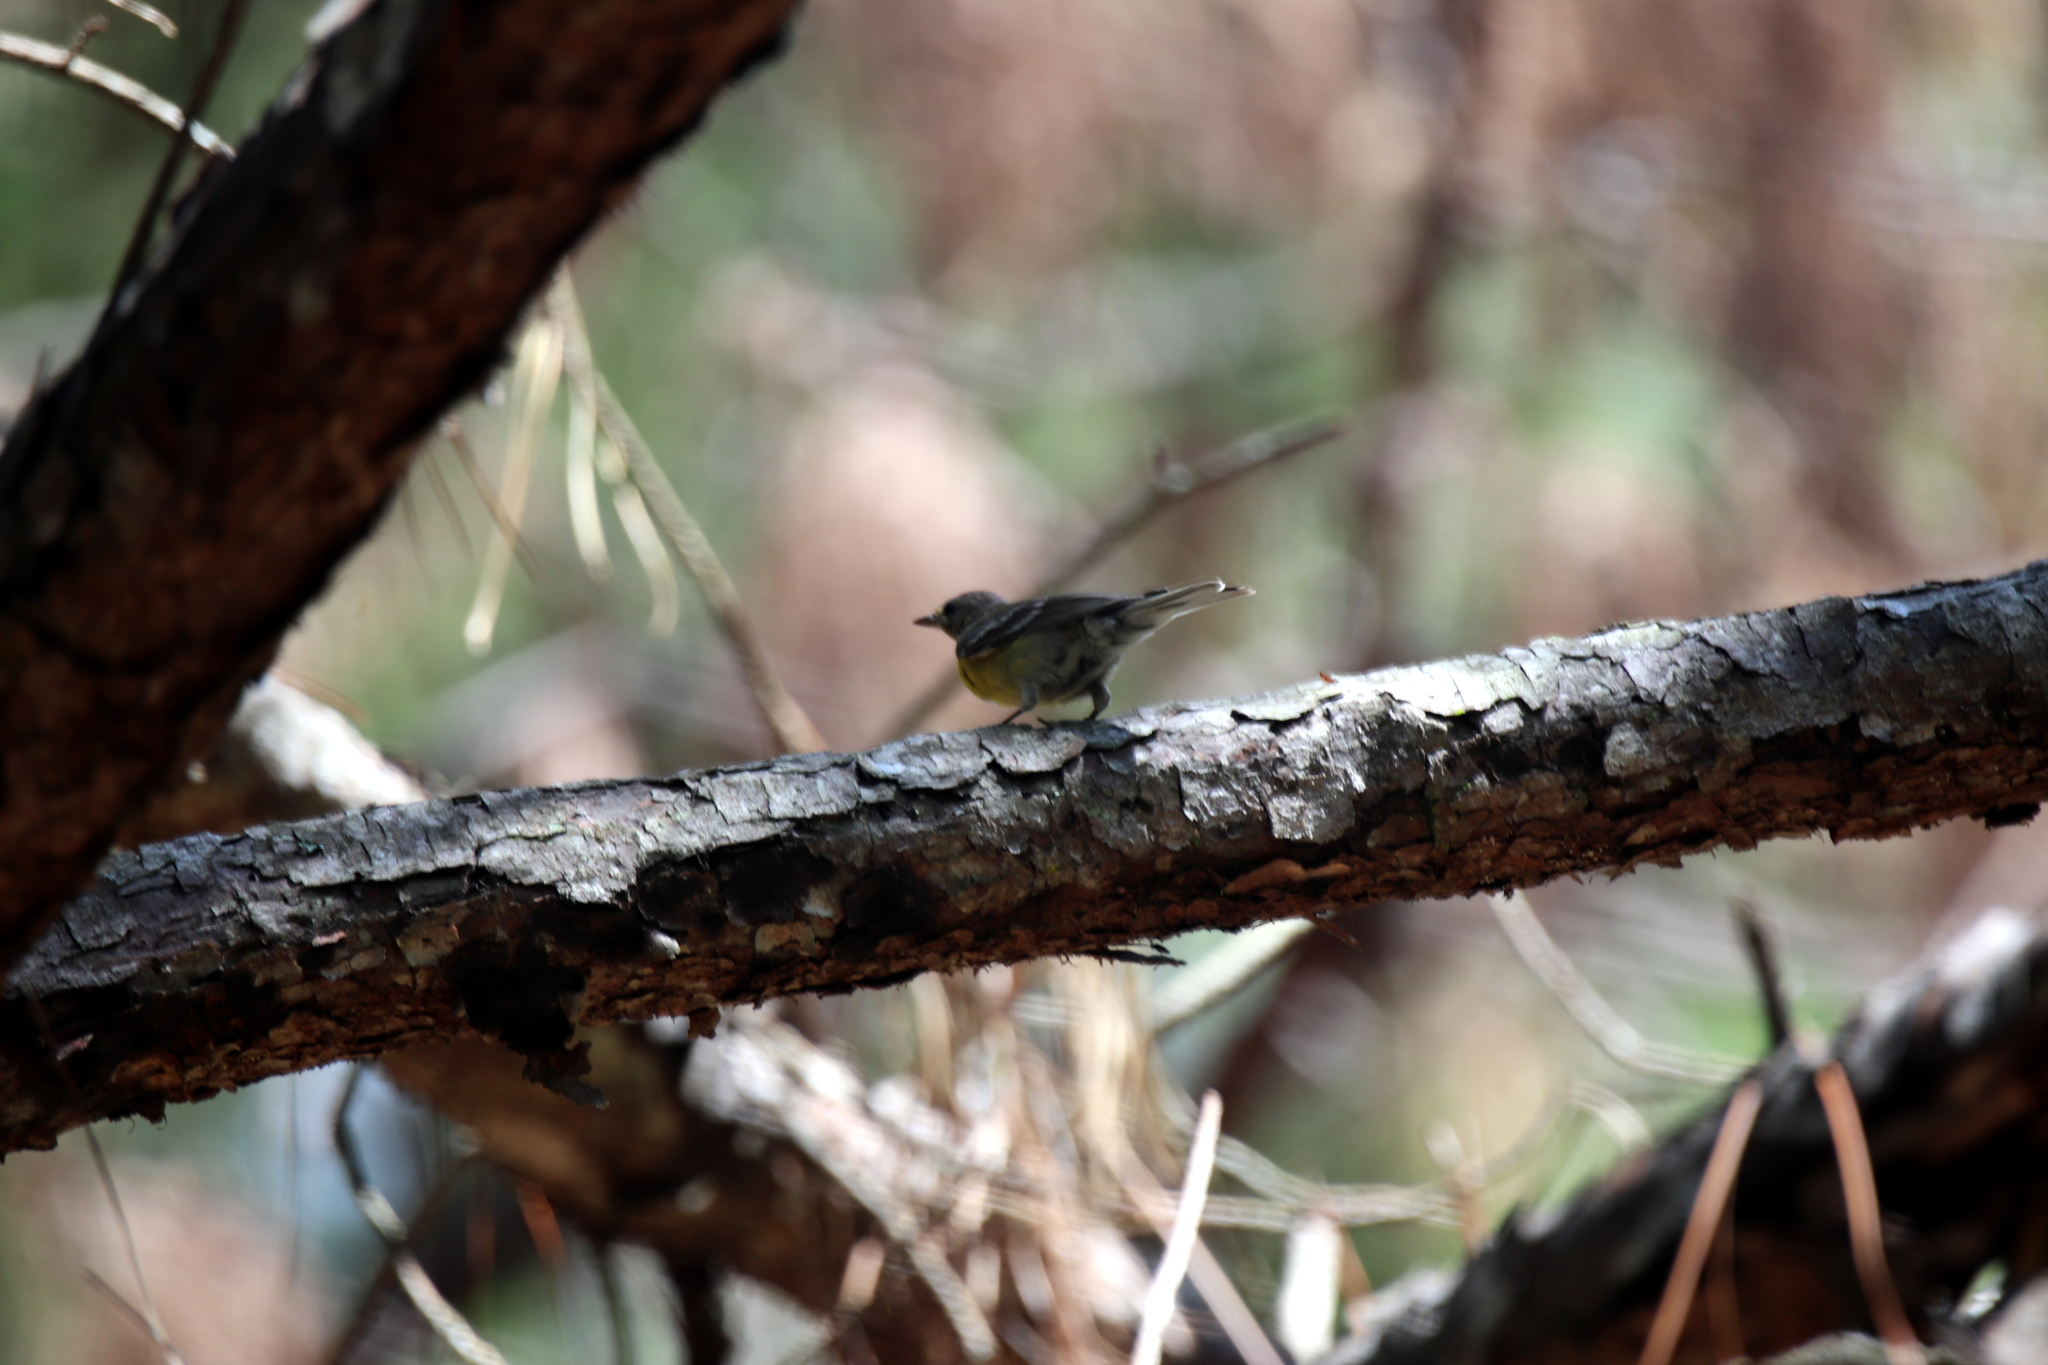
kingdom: Animalia
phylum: Chordata
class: Aves
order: Passeriformes
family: Parulidae
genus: Setophaga
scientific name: Setophaga pinus
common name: Pine warbler
